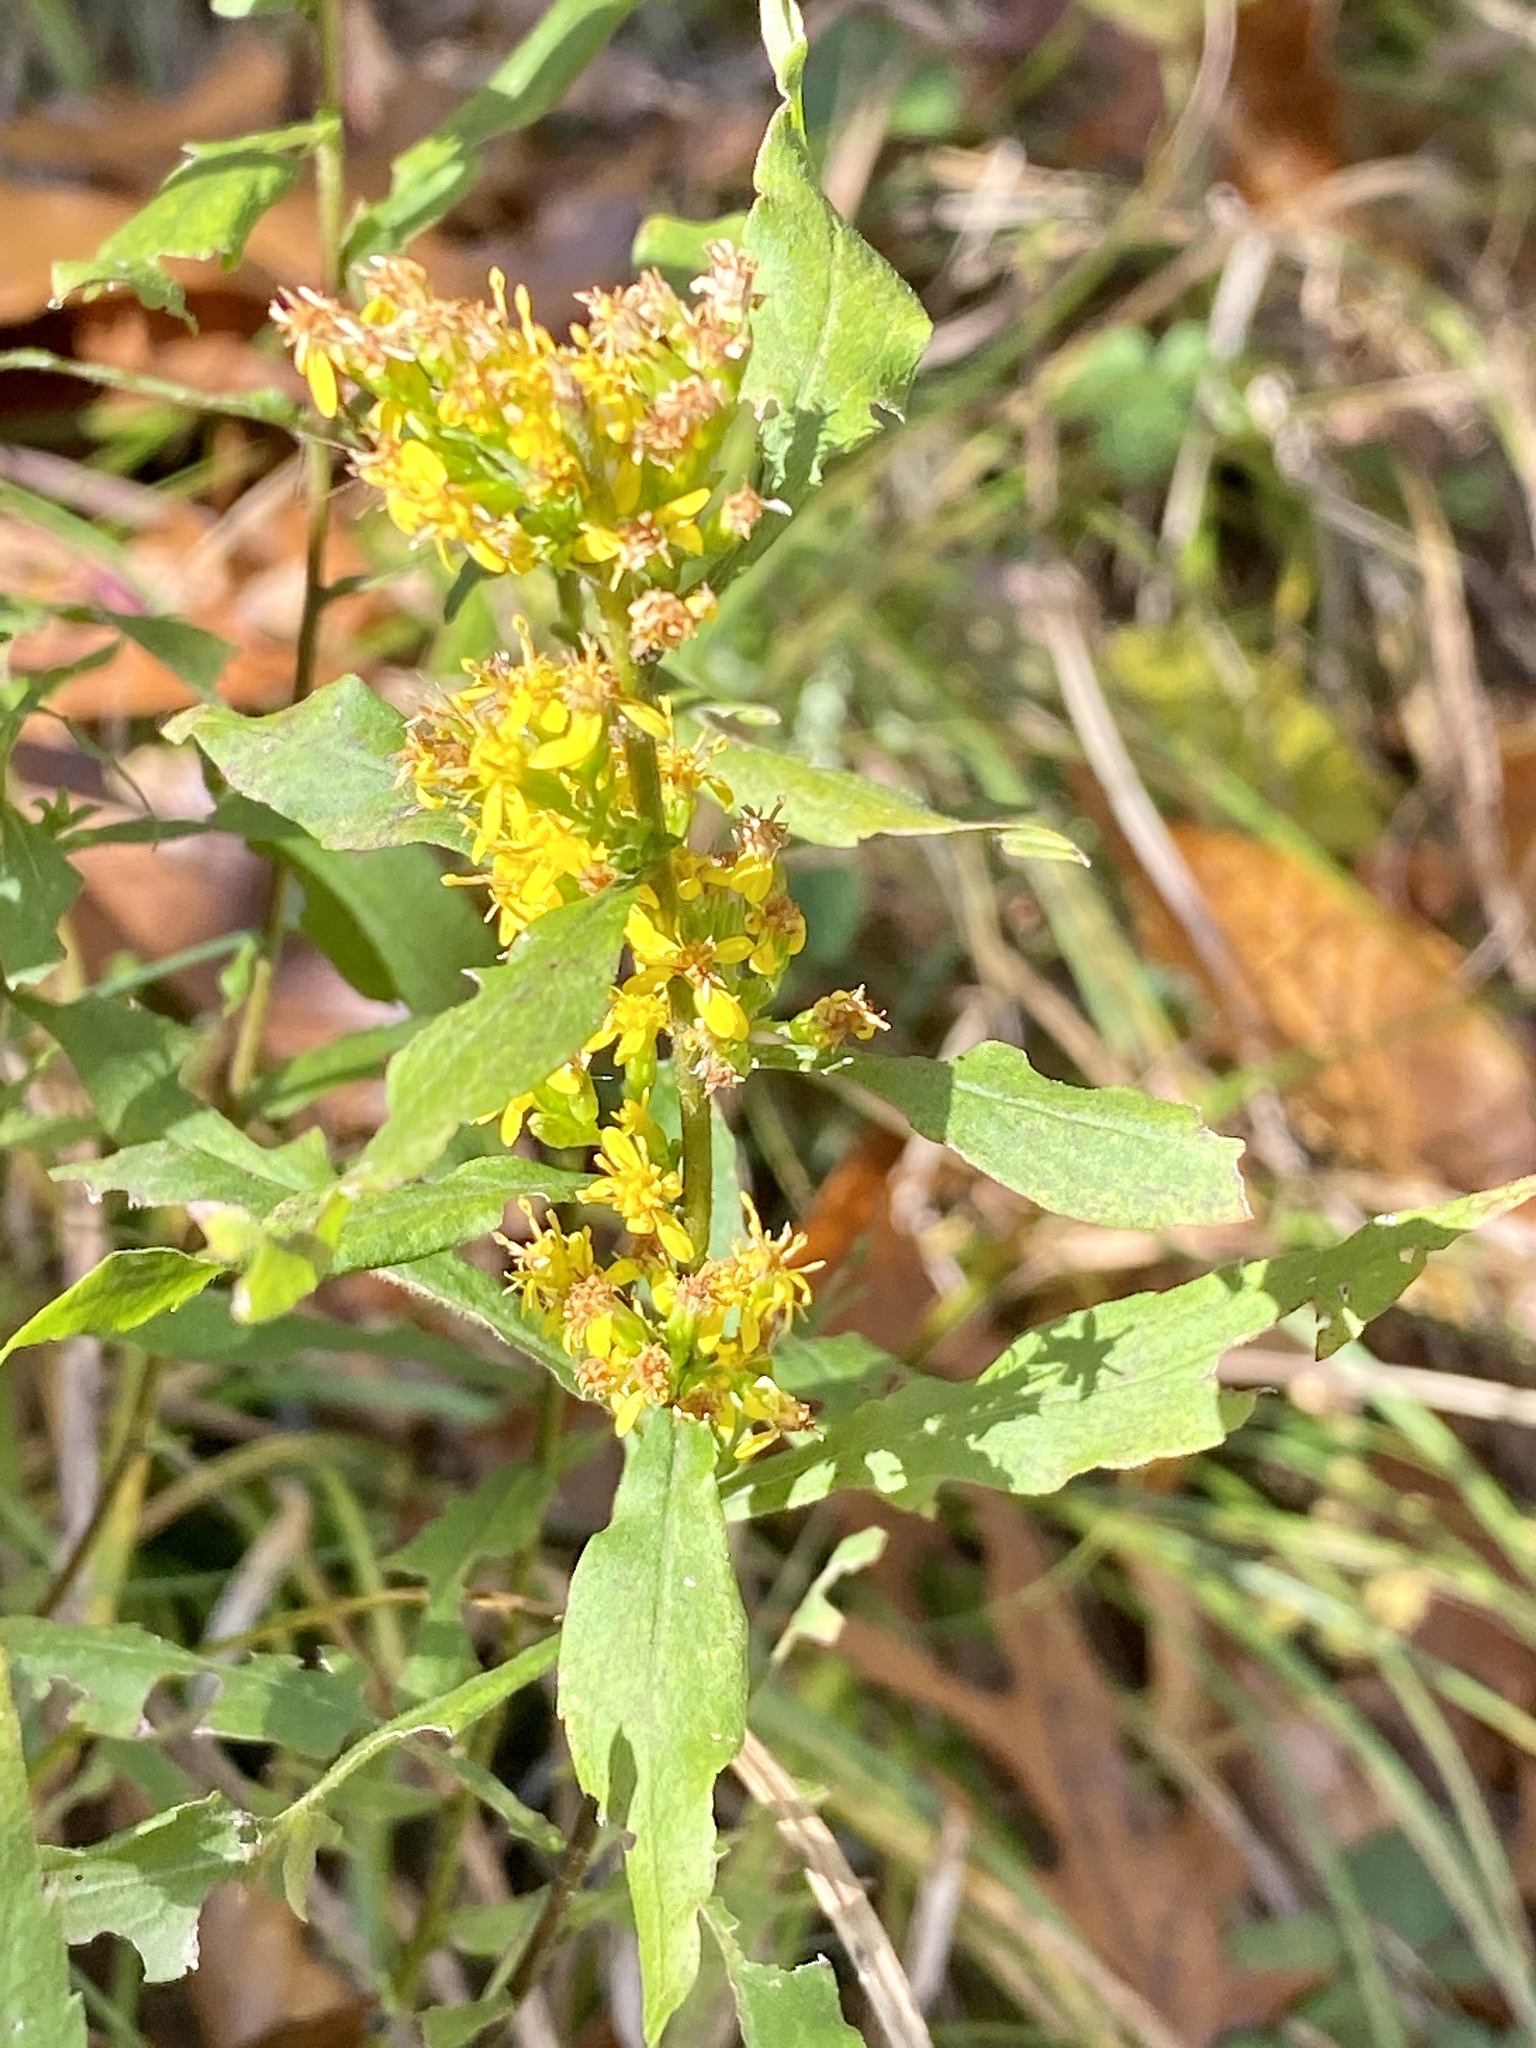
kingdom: Plantae
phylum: Tracheophyta
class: Magnoliopsida
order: Asterales
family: Asteraceae
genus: Solidago
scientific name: Solidago caesia
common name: Woodland goldenrod
